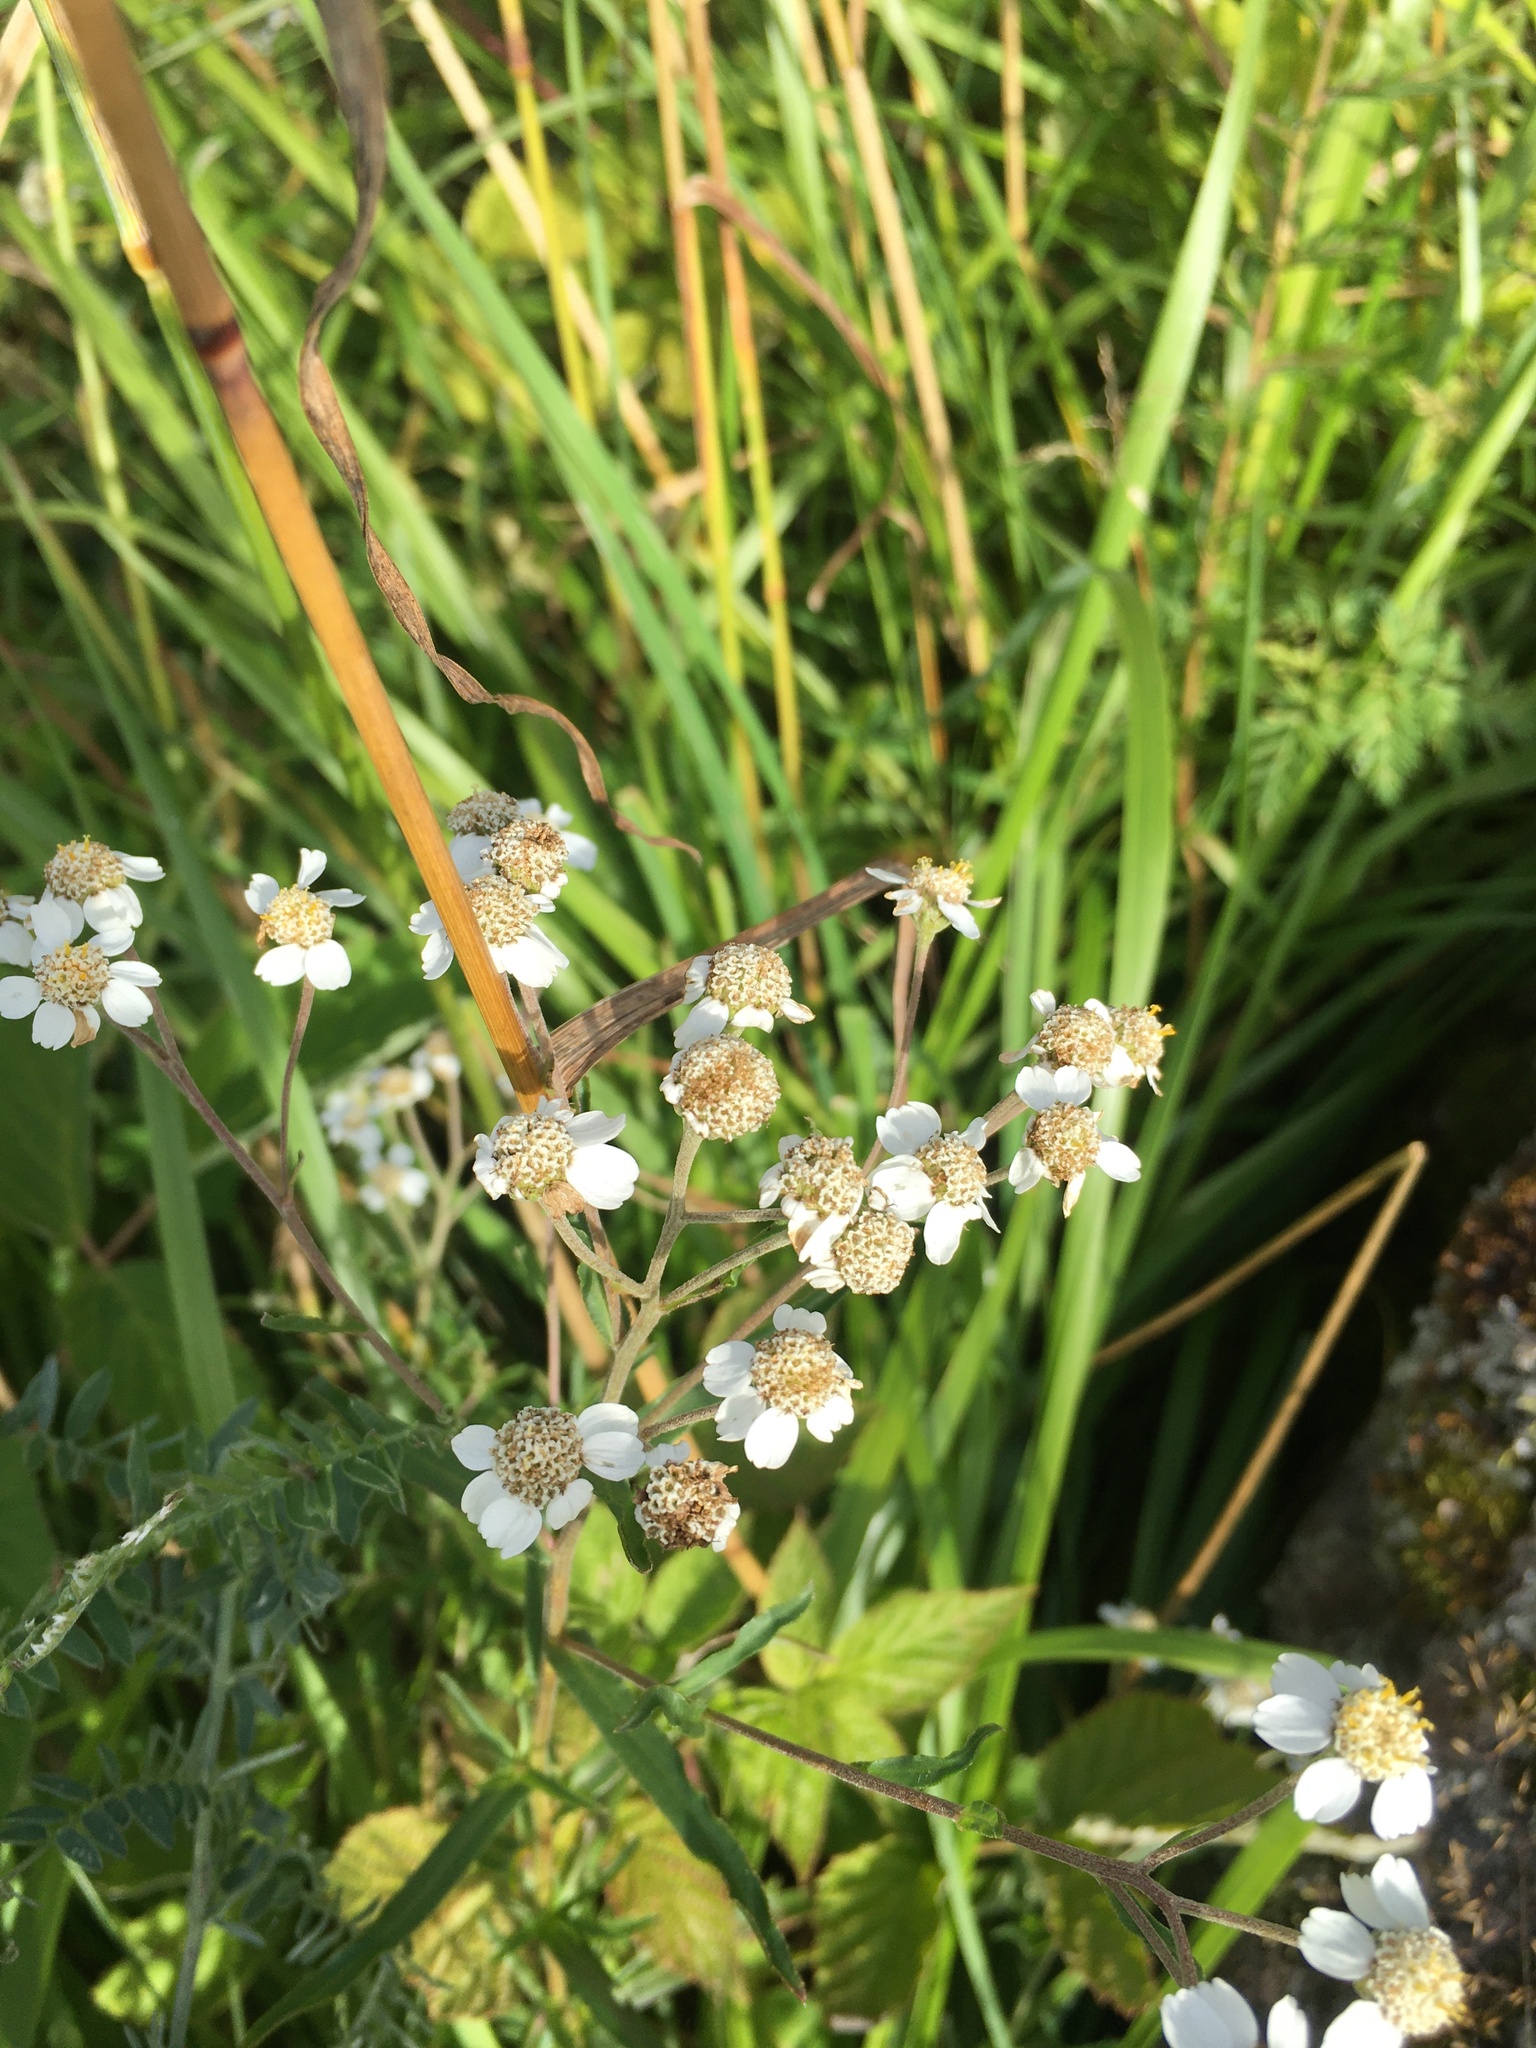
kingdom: Plantae
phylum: Tracheophyta
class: Magnoliopsida
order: Asterales
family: Asteraceae
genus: Achillea
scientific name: Achillea ptarmica
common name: Sneezeweed
